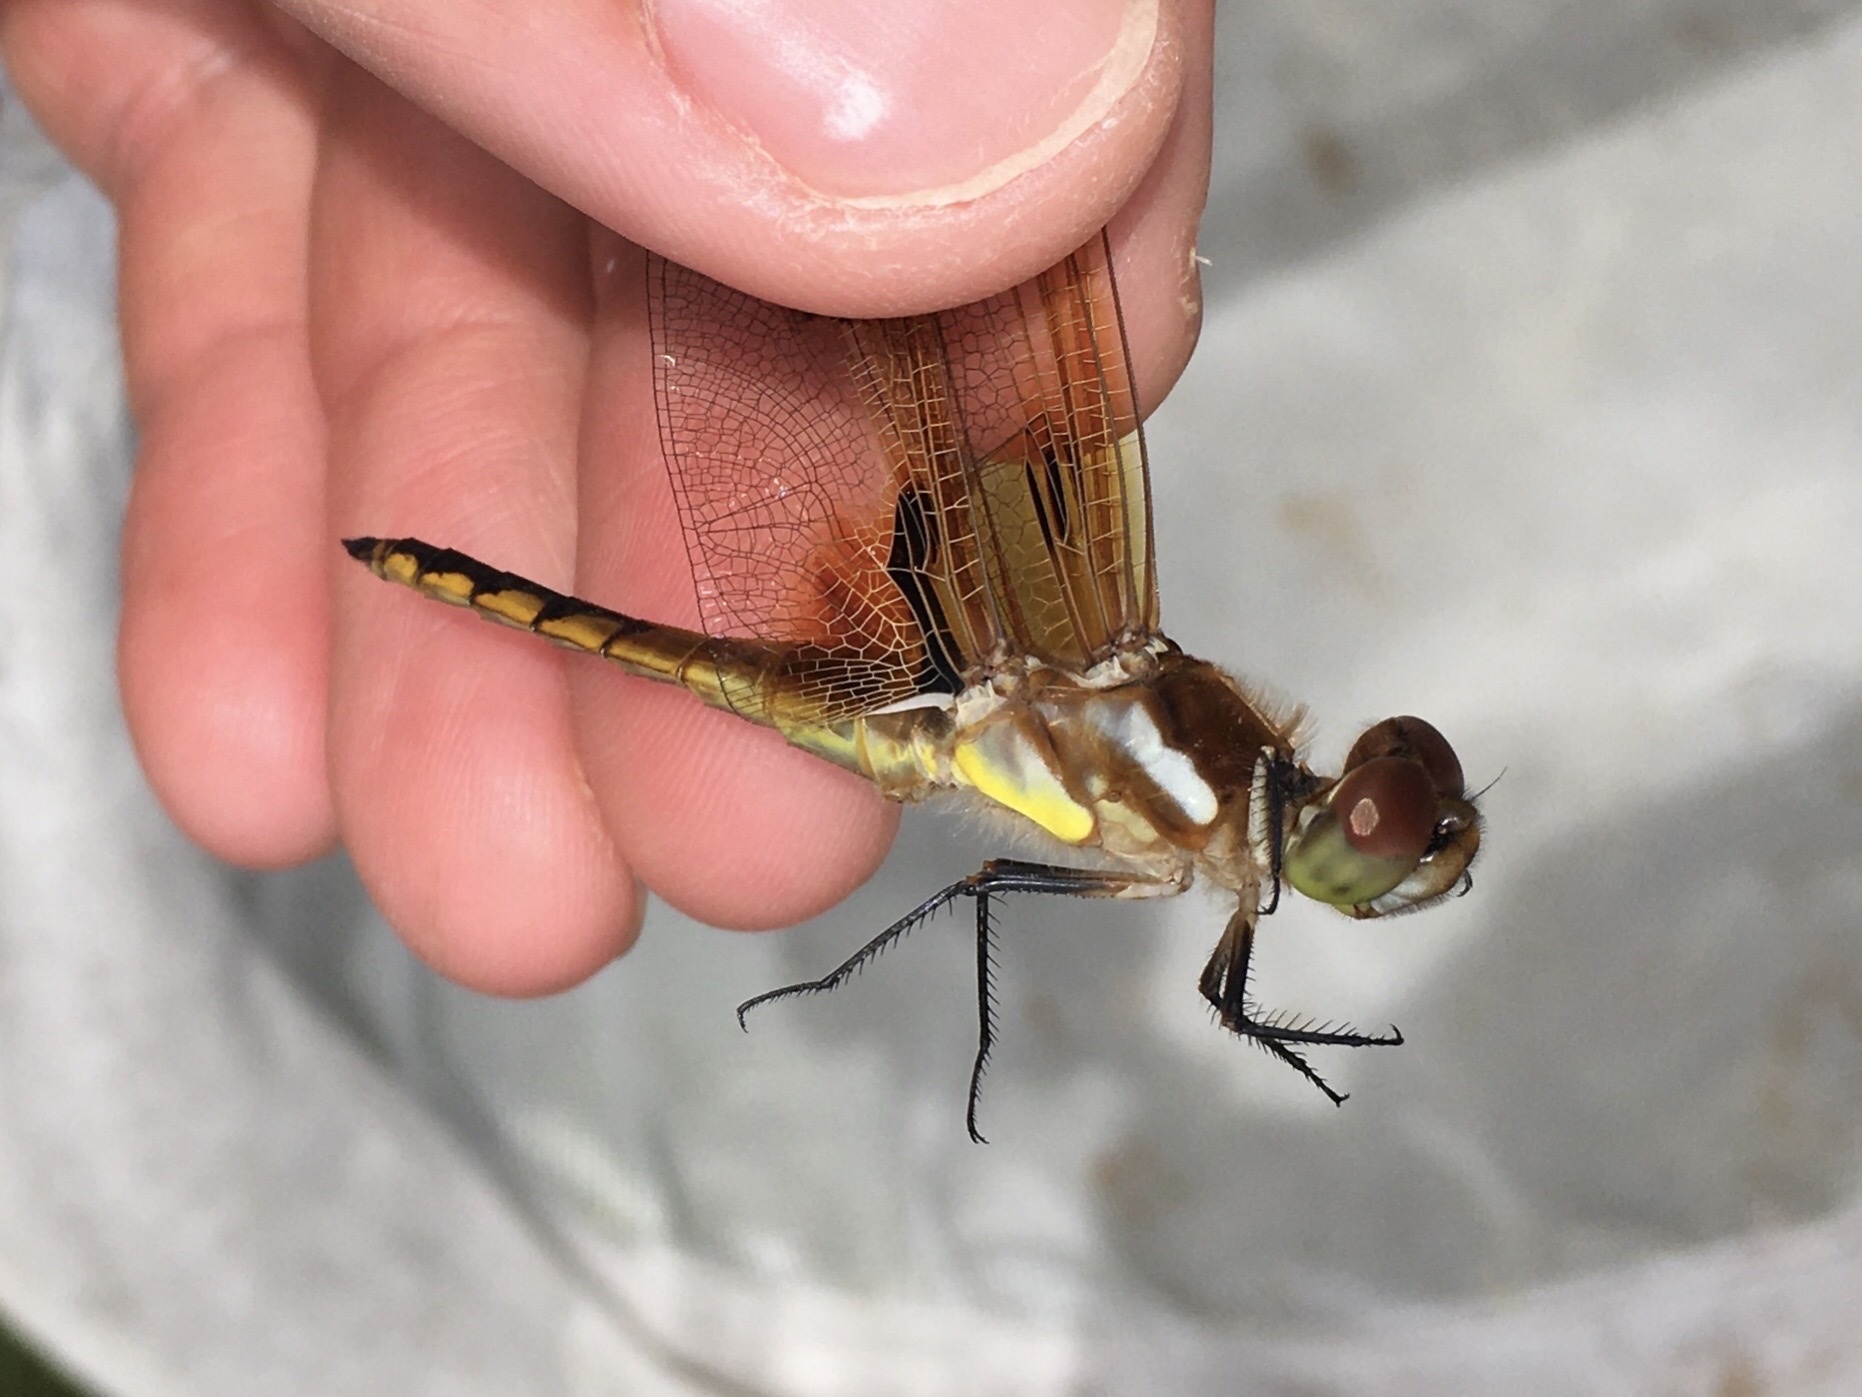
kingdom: Animalia
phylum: Arthropoda
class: Insecta
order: Odonata
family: Libellulidae
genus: Libellula
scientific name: Libellula semifasciata
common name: Painted skimmer
